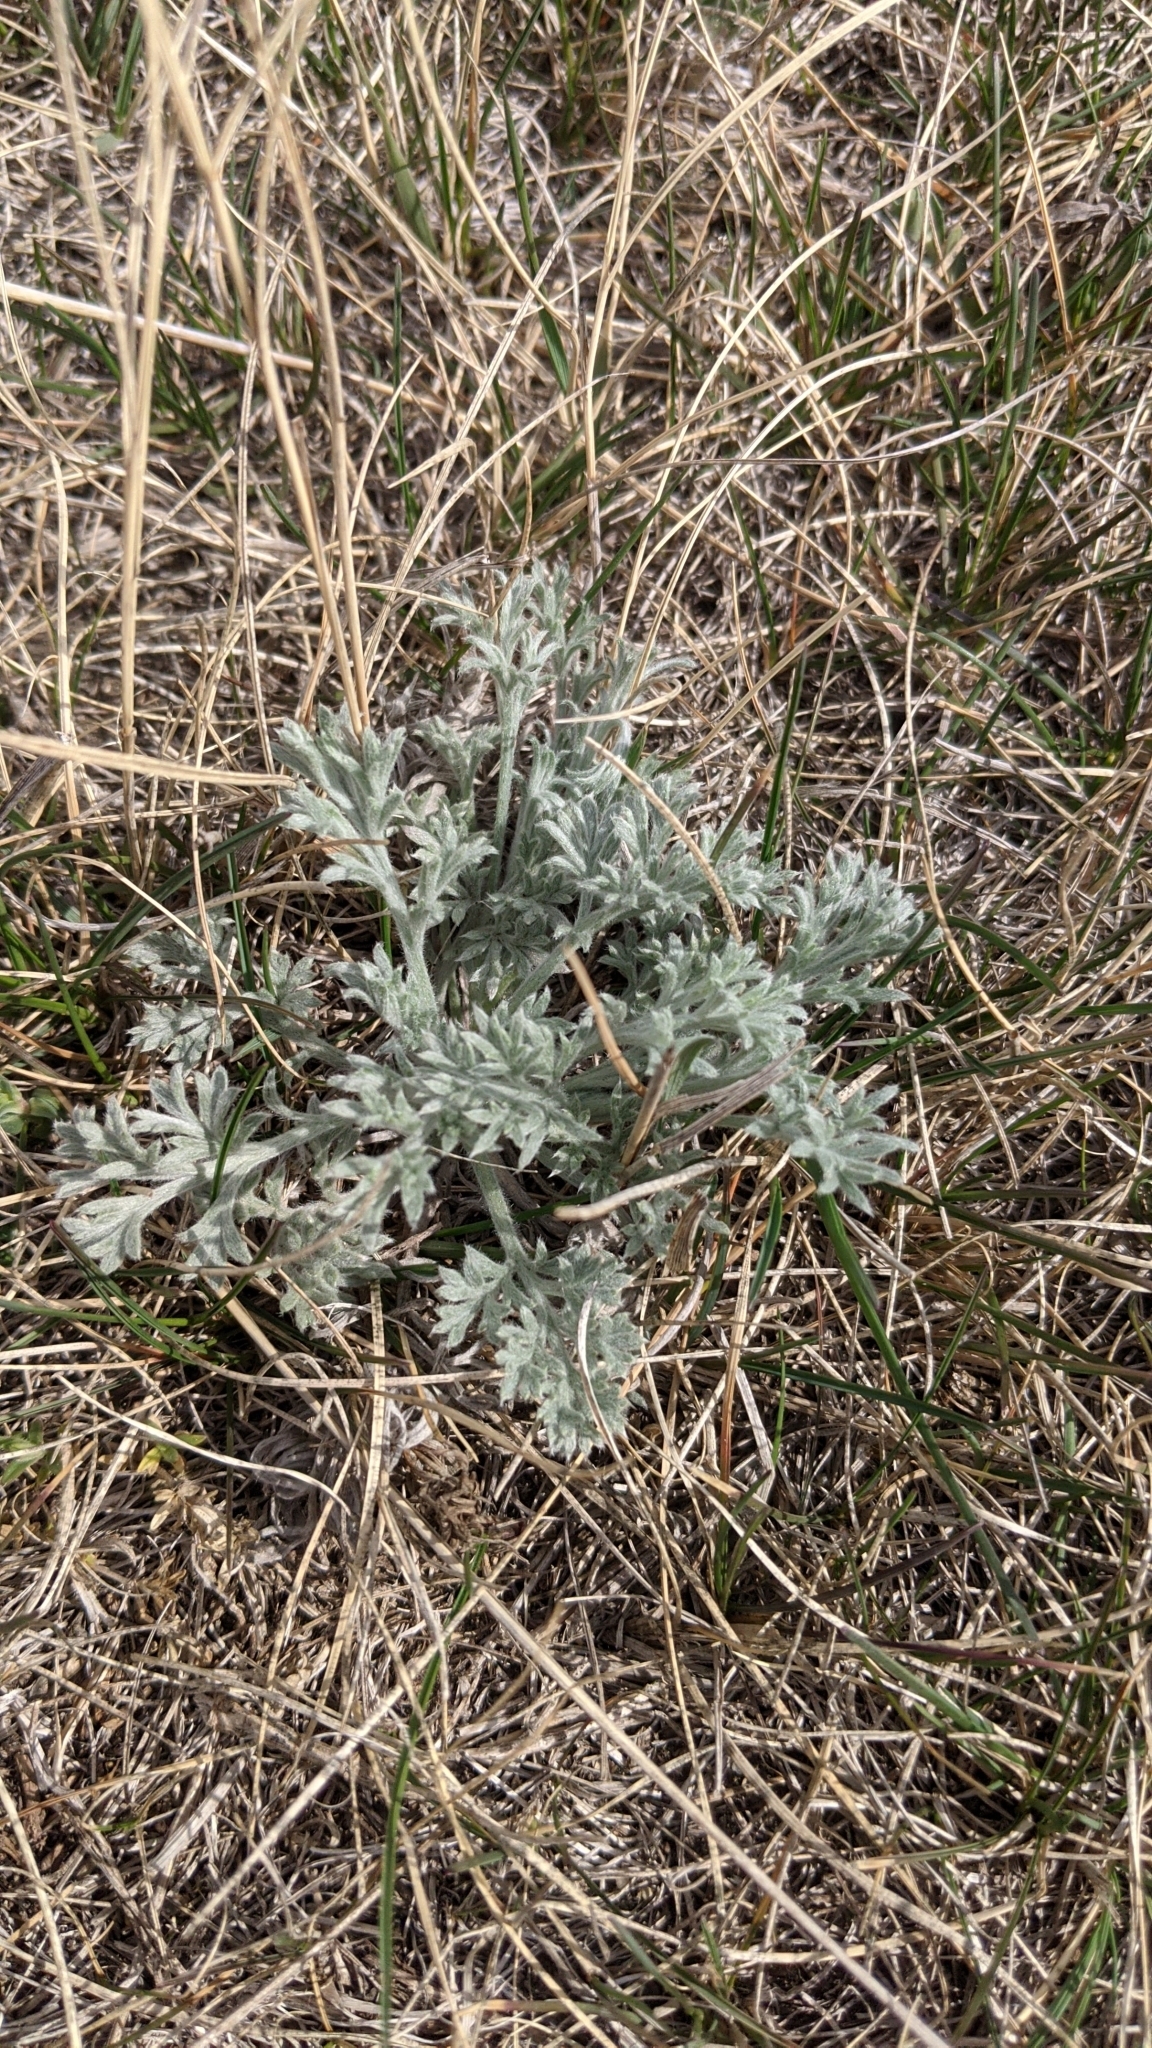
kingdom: Plantae
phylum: Tracheophyta
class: Magnoliopsida
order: Asterales
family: Asteraceae
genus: Artemisia
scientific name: Artemisia absinthium
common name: Wormwood
